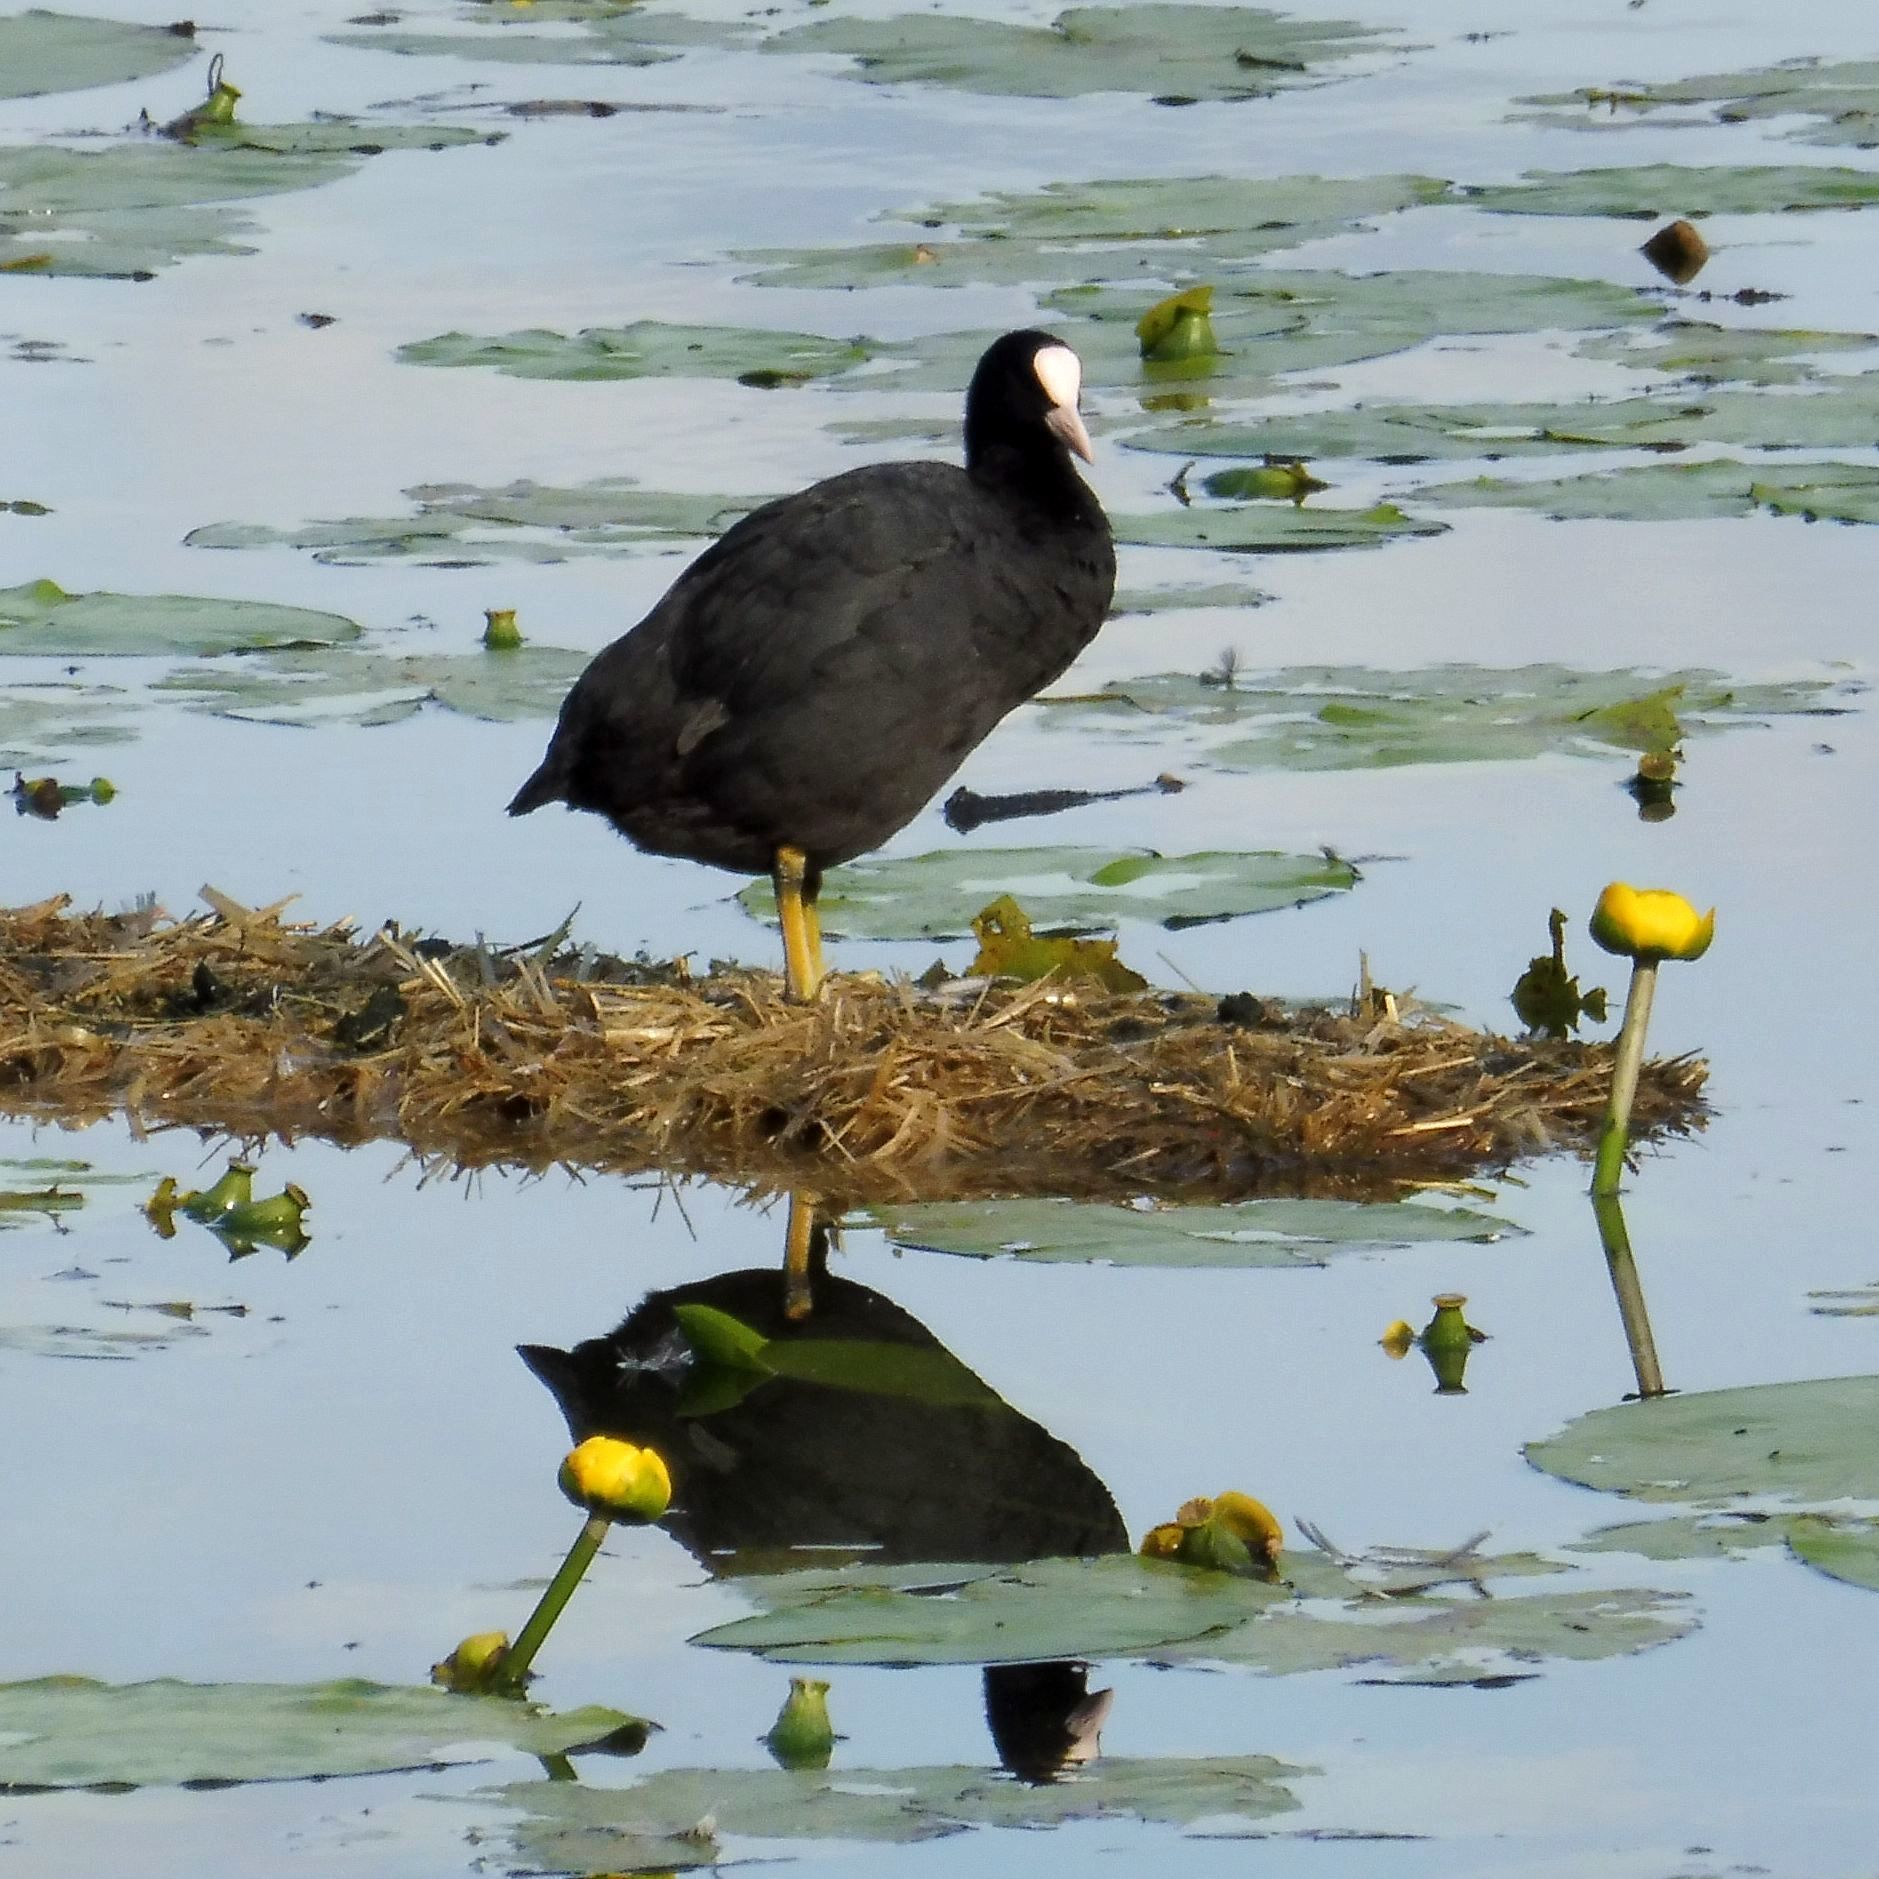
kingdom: Animalia
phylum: Chordata
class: Aves
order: Gruiformes
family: Rallidae
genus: Fulica
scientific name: Fulica atra
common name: Eurasian coot
